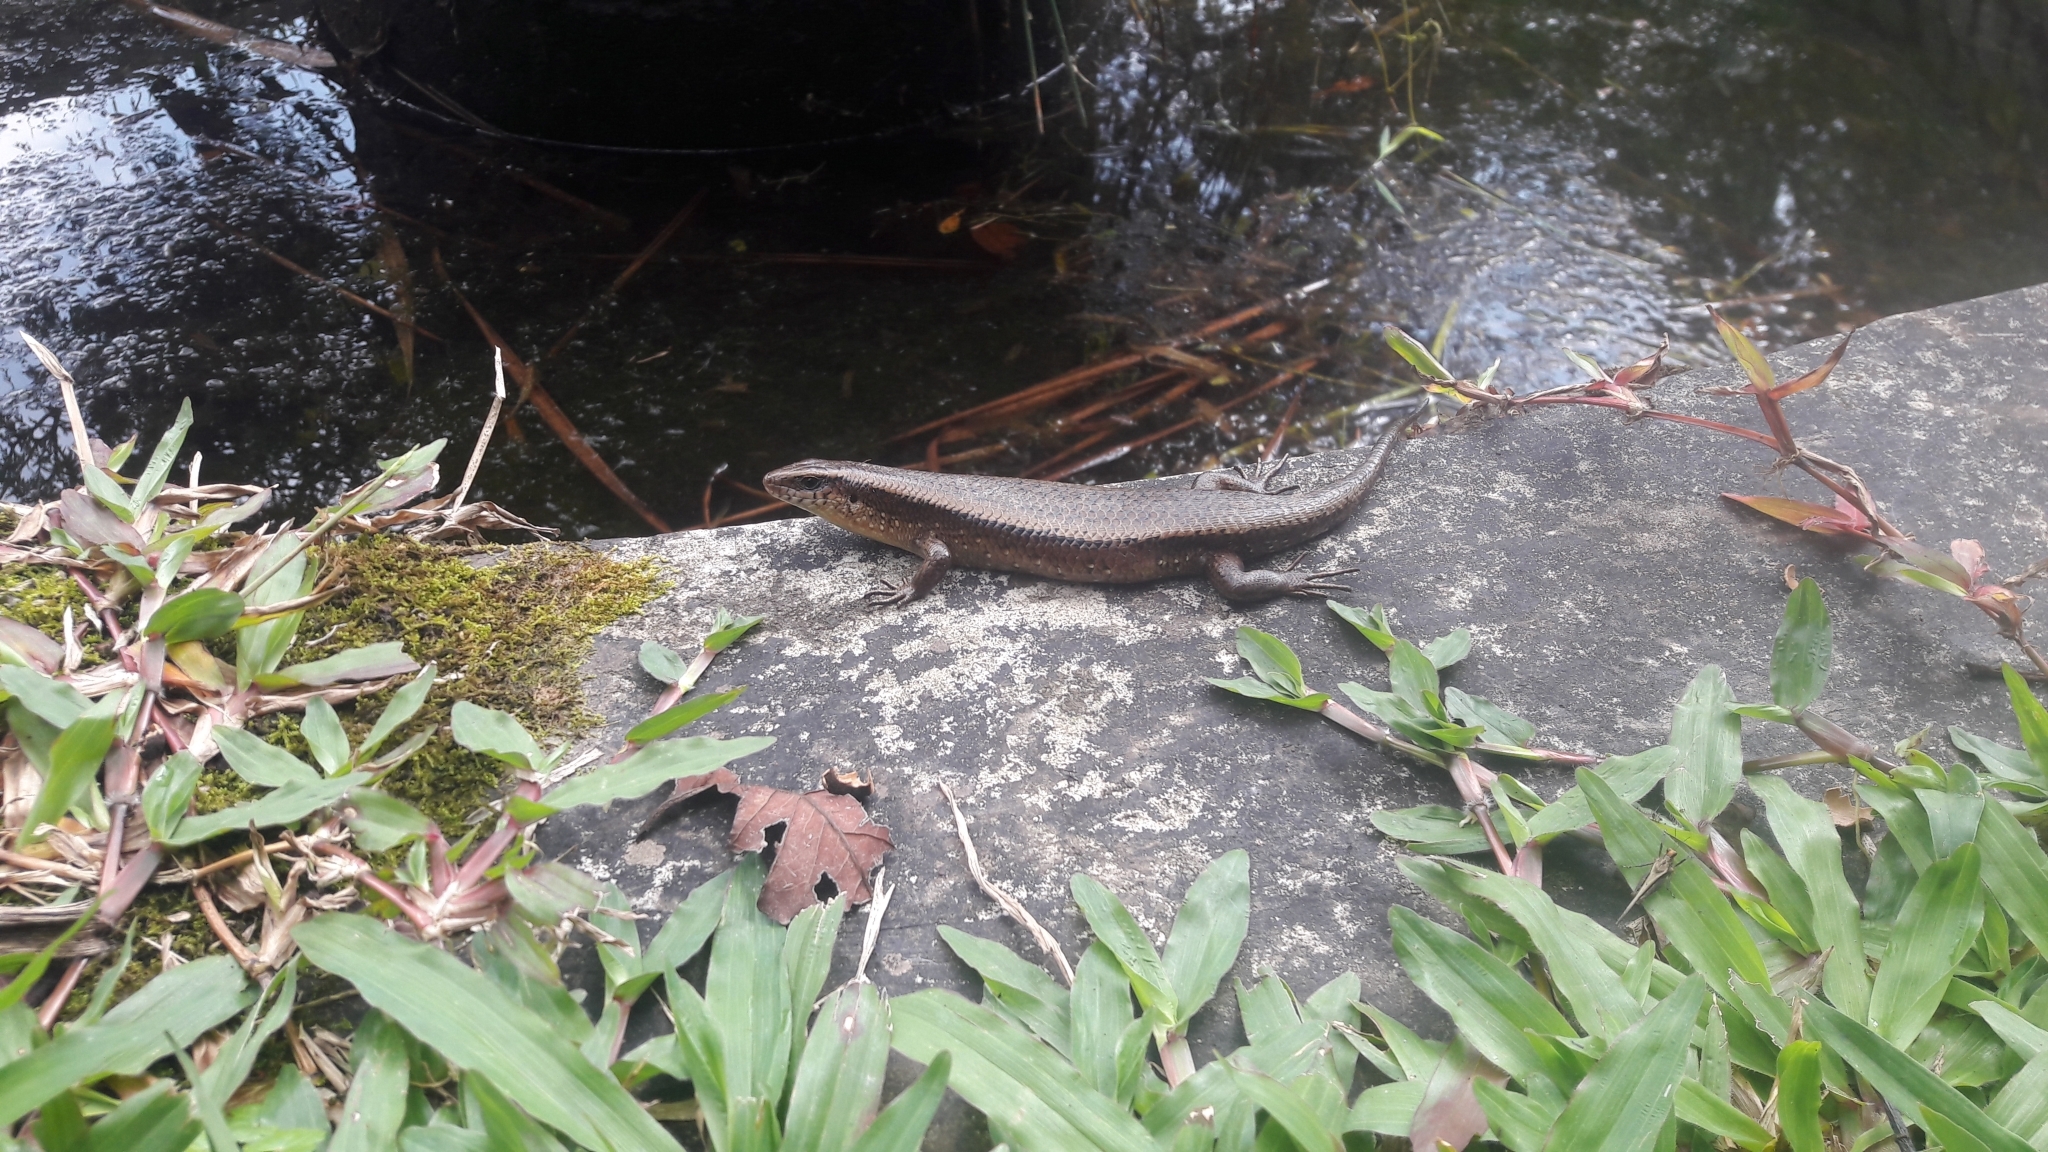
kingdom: Animalia
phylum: Chordata
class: Squamata
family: Scincidae
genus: Eutropis
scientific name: Eutropis multifasciata
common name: Common mabuya
